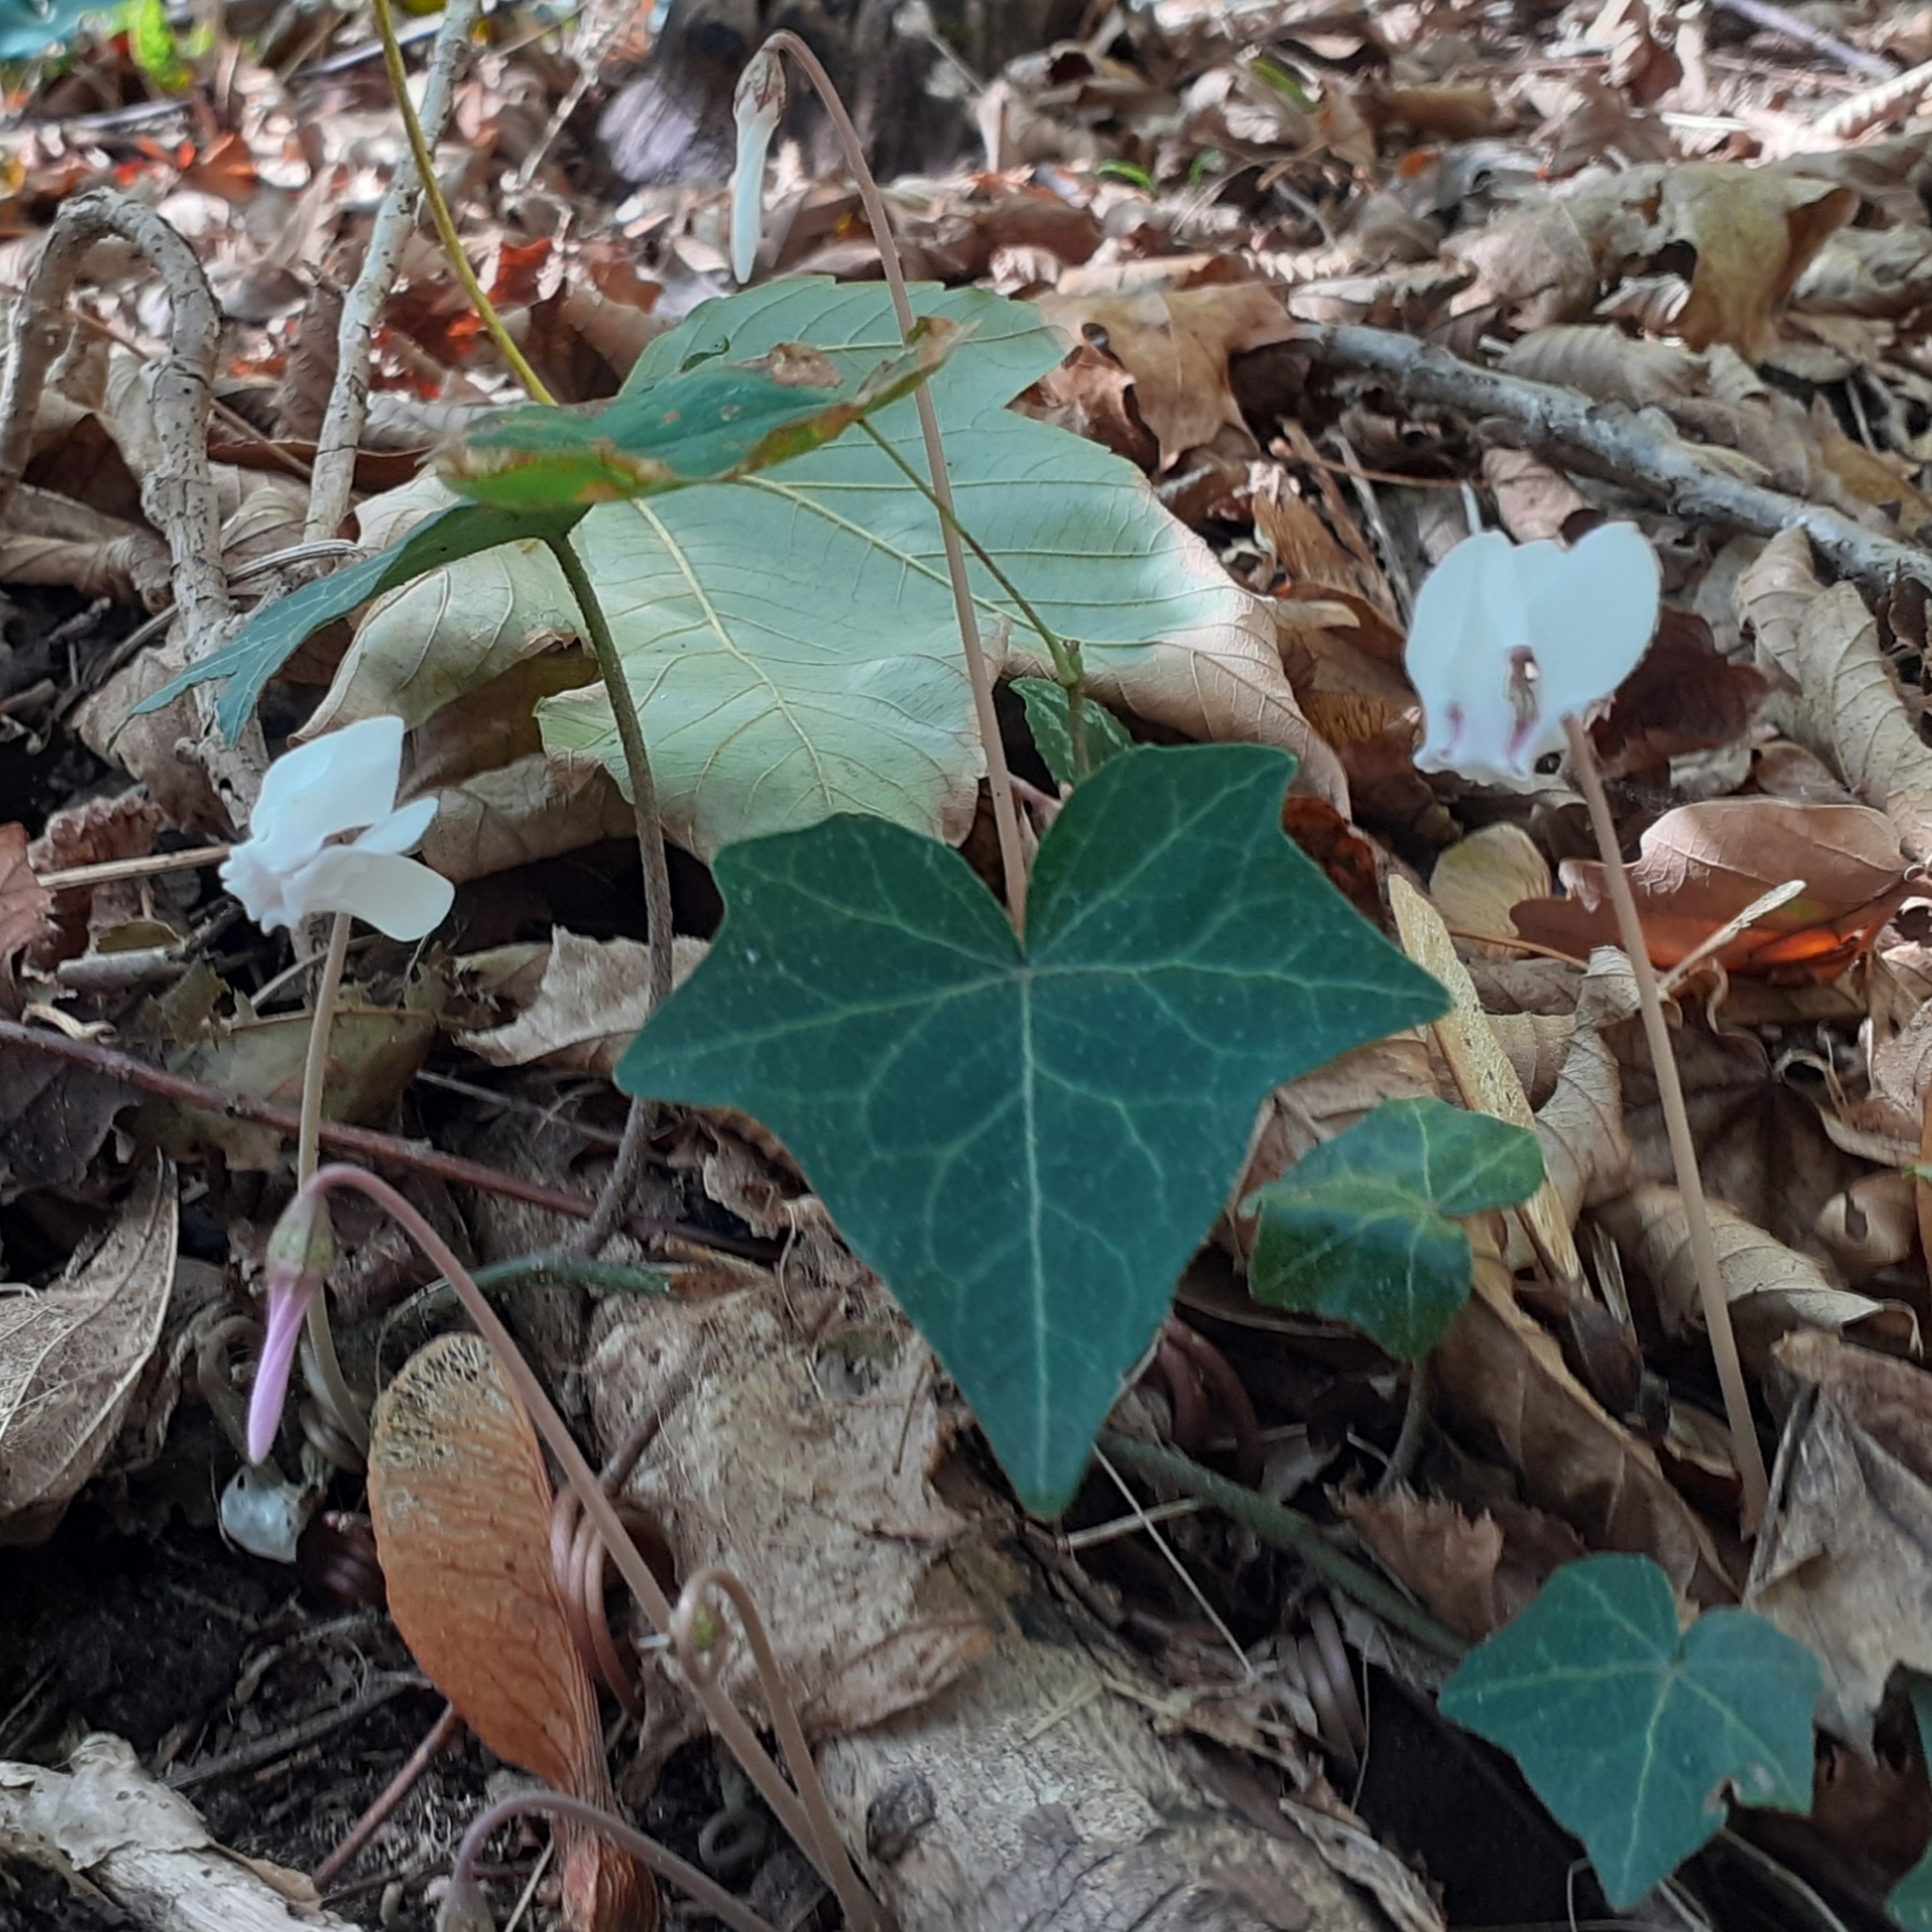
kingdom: Plantae
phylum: Tracheophyta
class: Magnoliopsida
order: Ericales
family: Primulaceae
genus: Cyclamen
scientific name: Cyclamen hederifolium
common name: Sowbread
